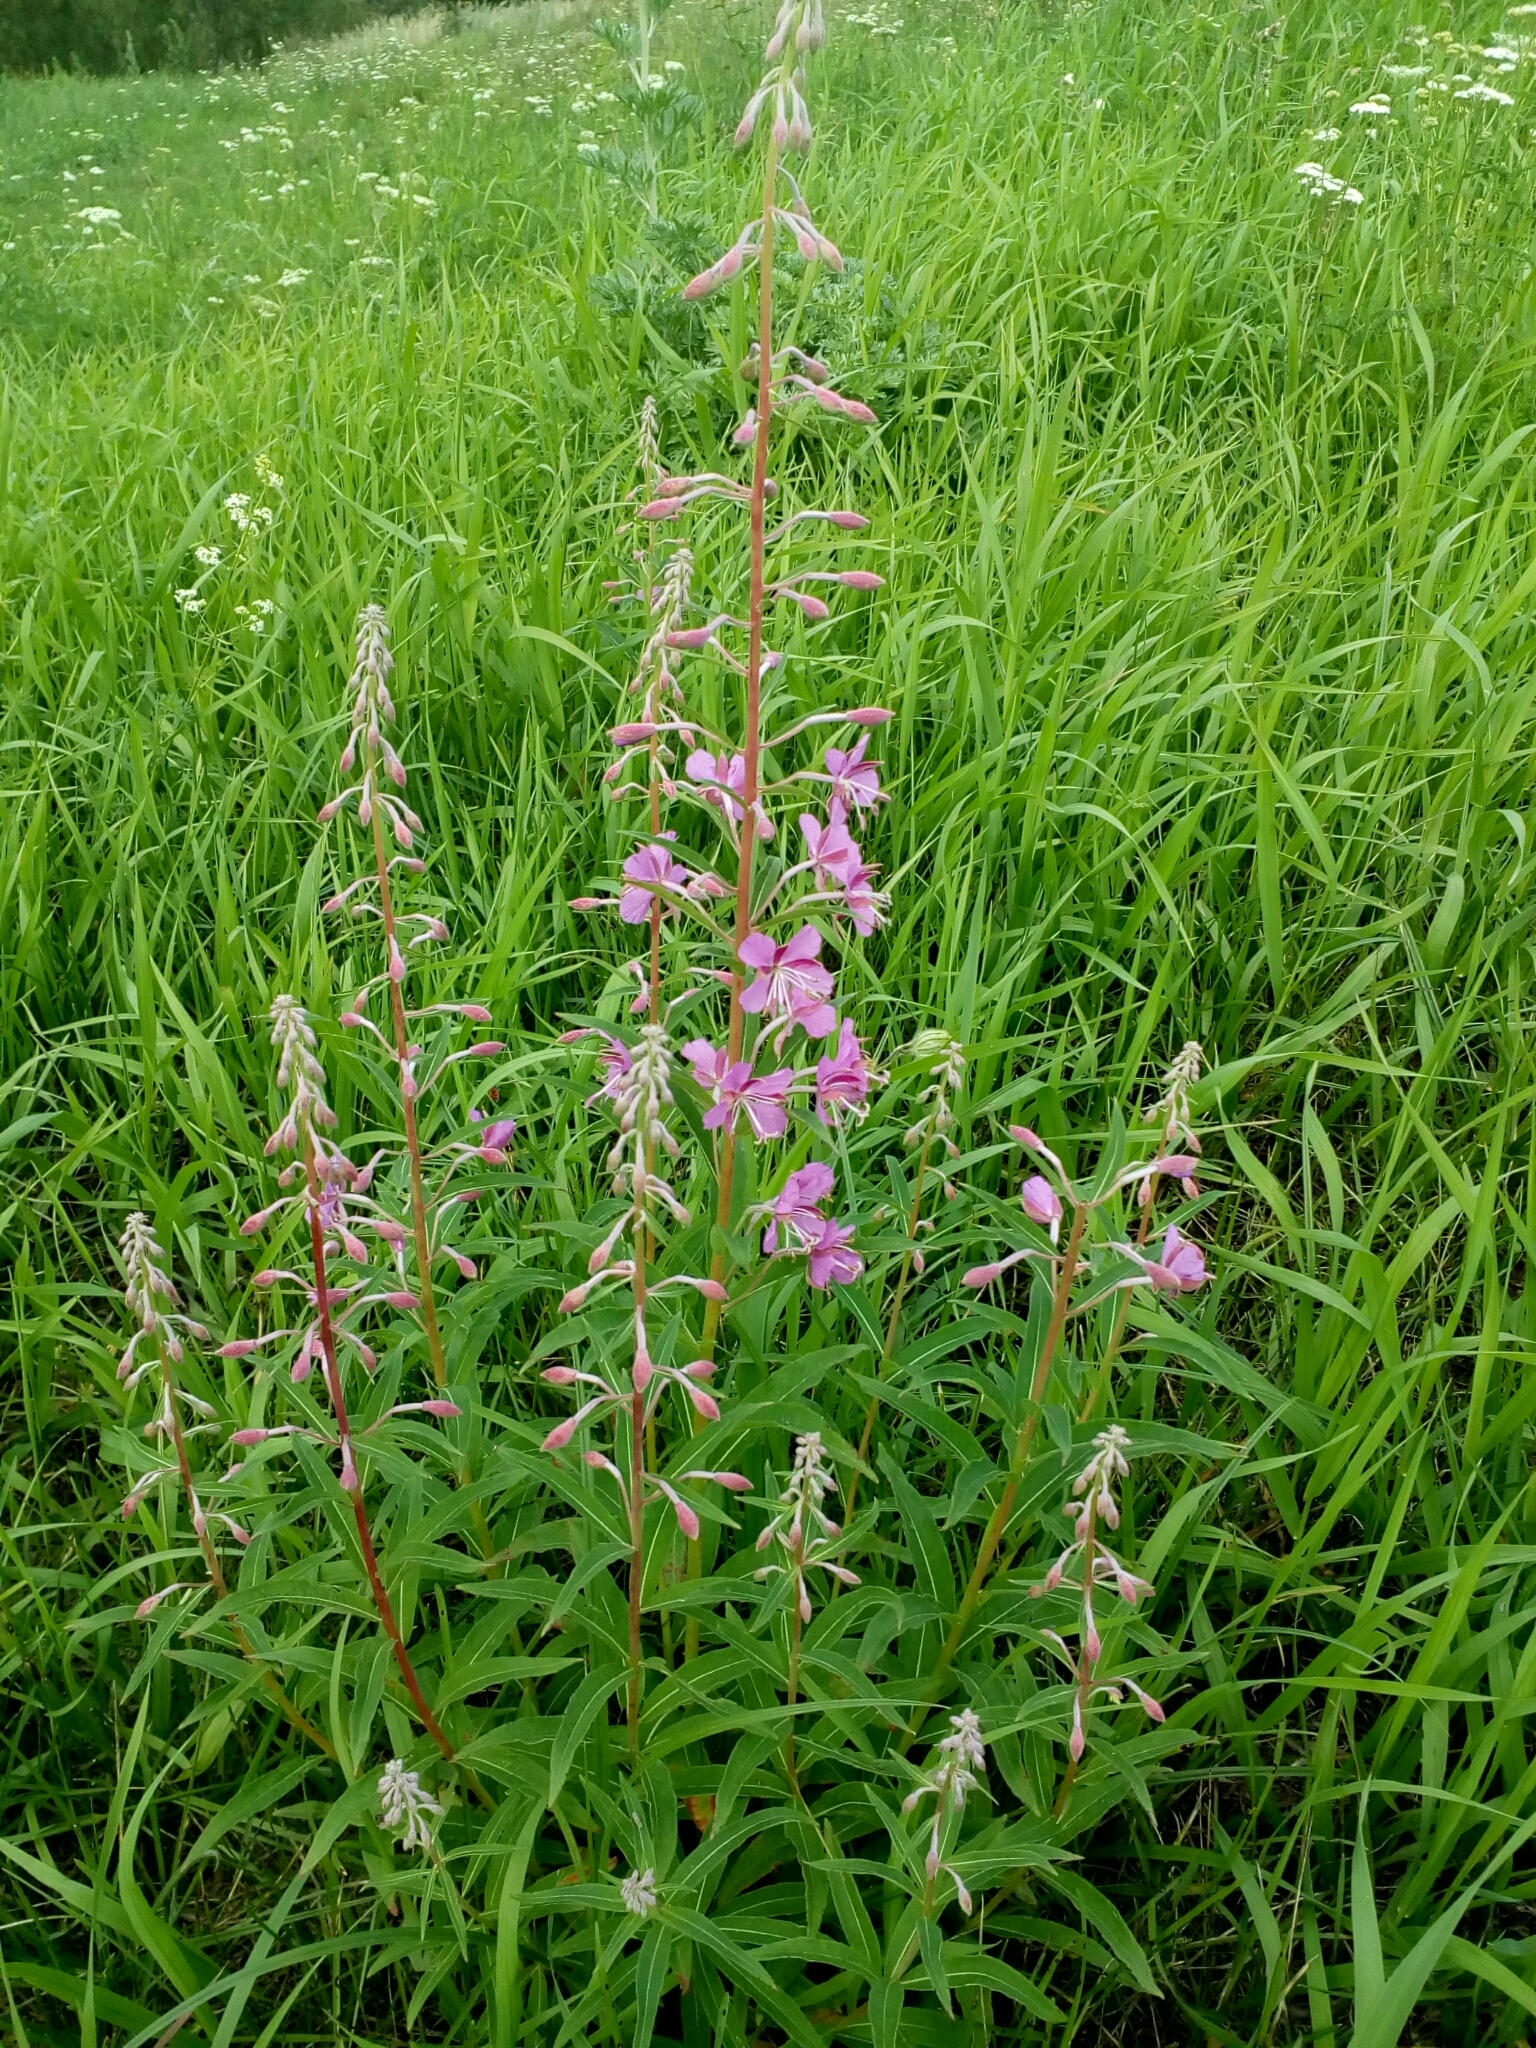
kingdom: Plantae
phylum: Tracheophyta
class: Magnoliopsida
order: Myrtales
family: Onagraceae
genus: Chamaenerion
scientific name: Chamaenerion angustifolium
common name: Fireweed
